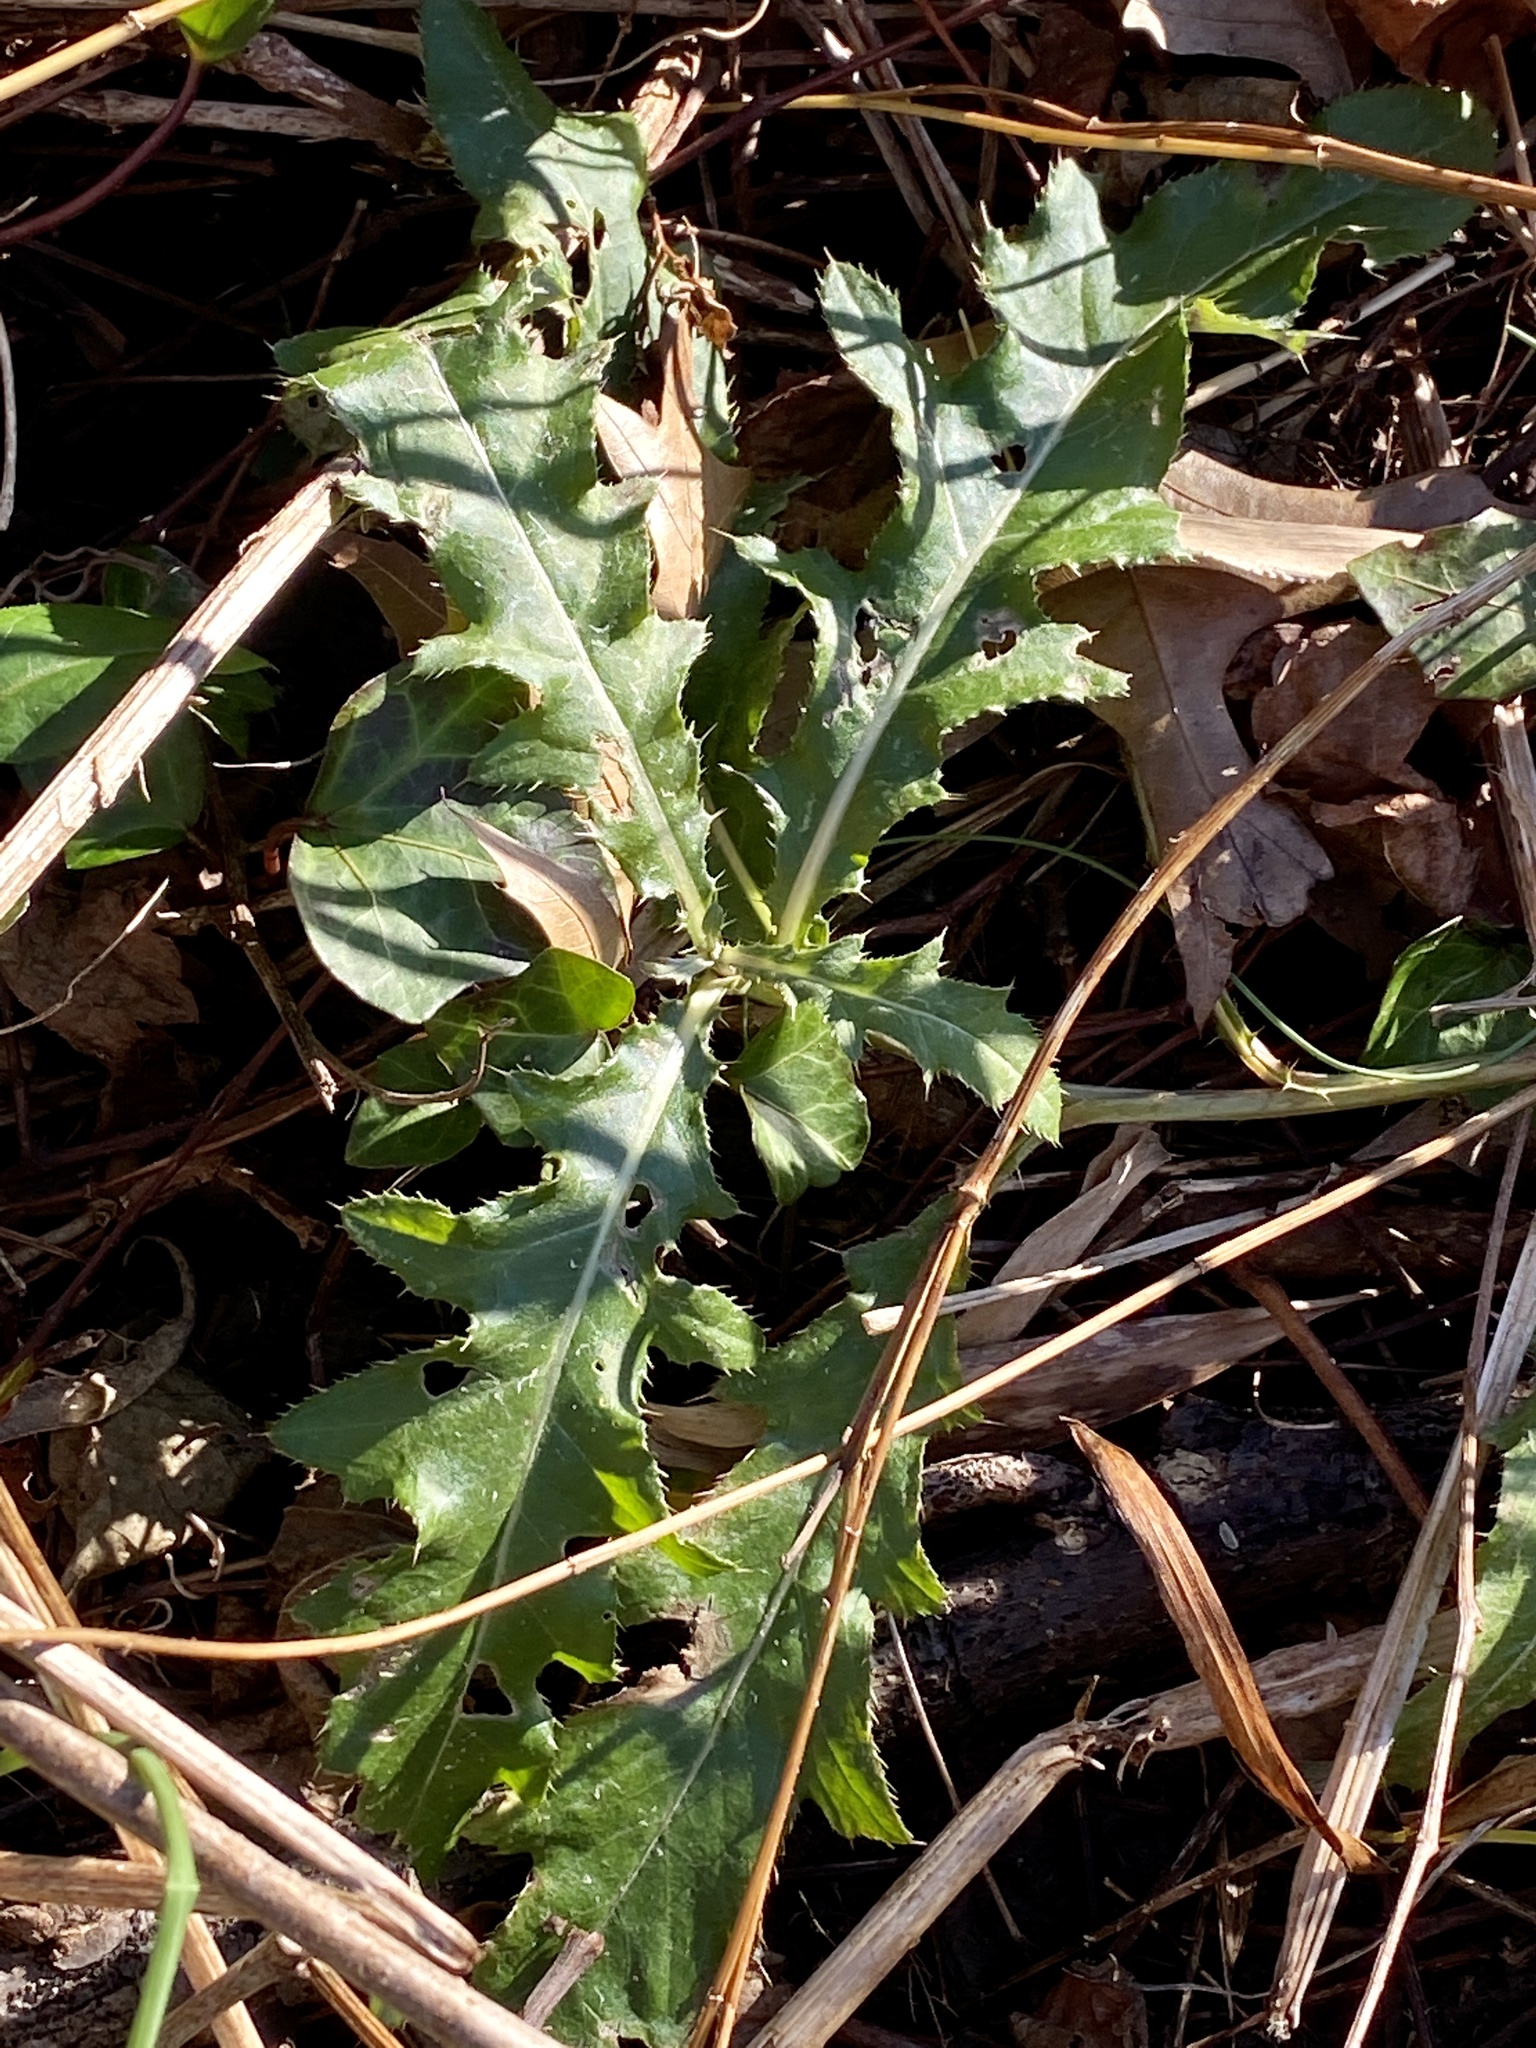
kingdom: Plantae
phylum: Tracheophyta
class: Magnoliopsida
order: Asterales
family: Asteraceae
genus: Cirsium
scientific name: Cirsium arvense
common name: Creeping thistle
